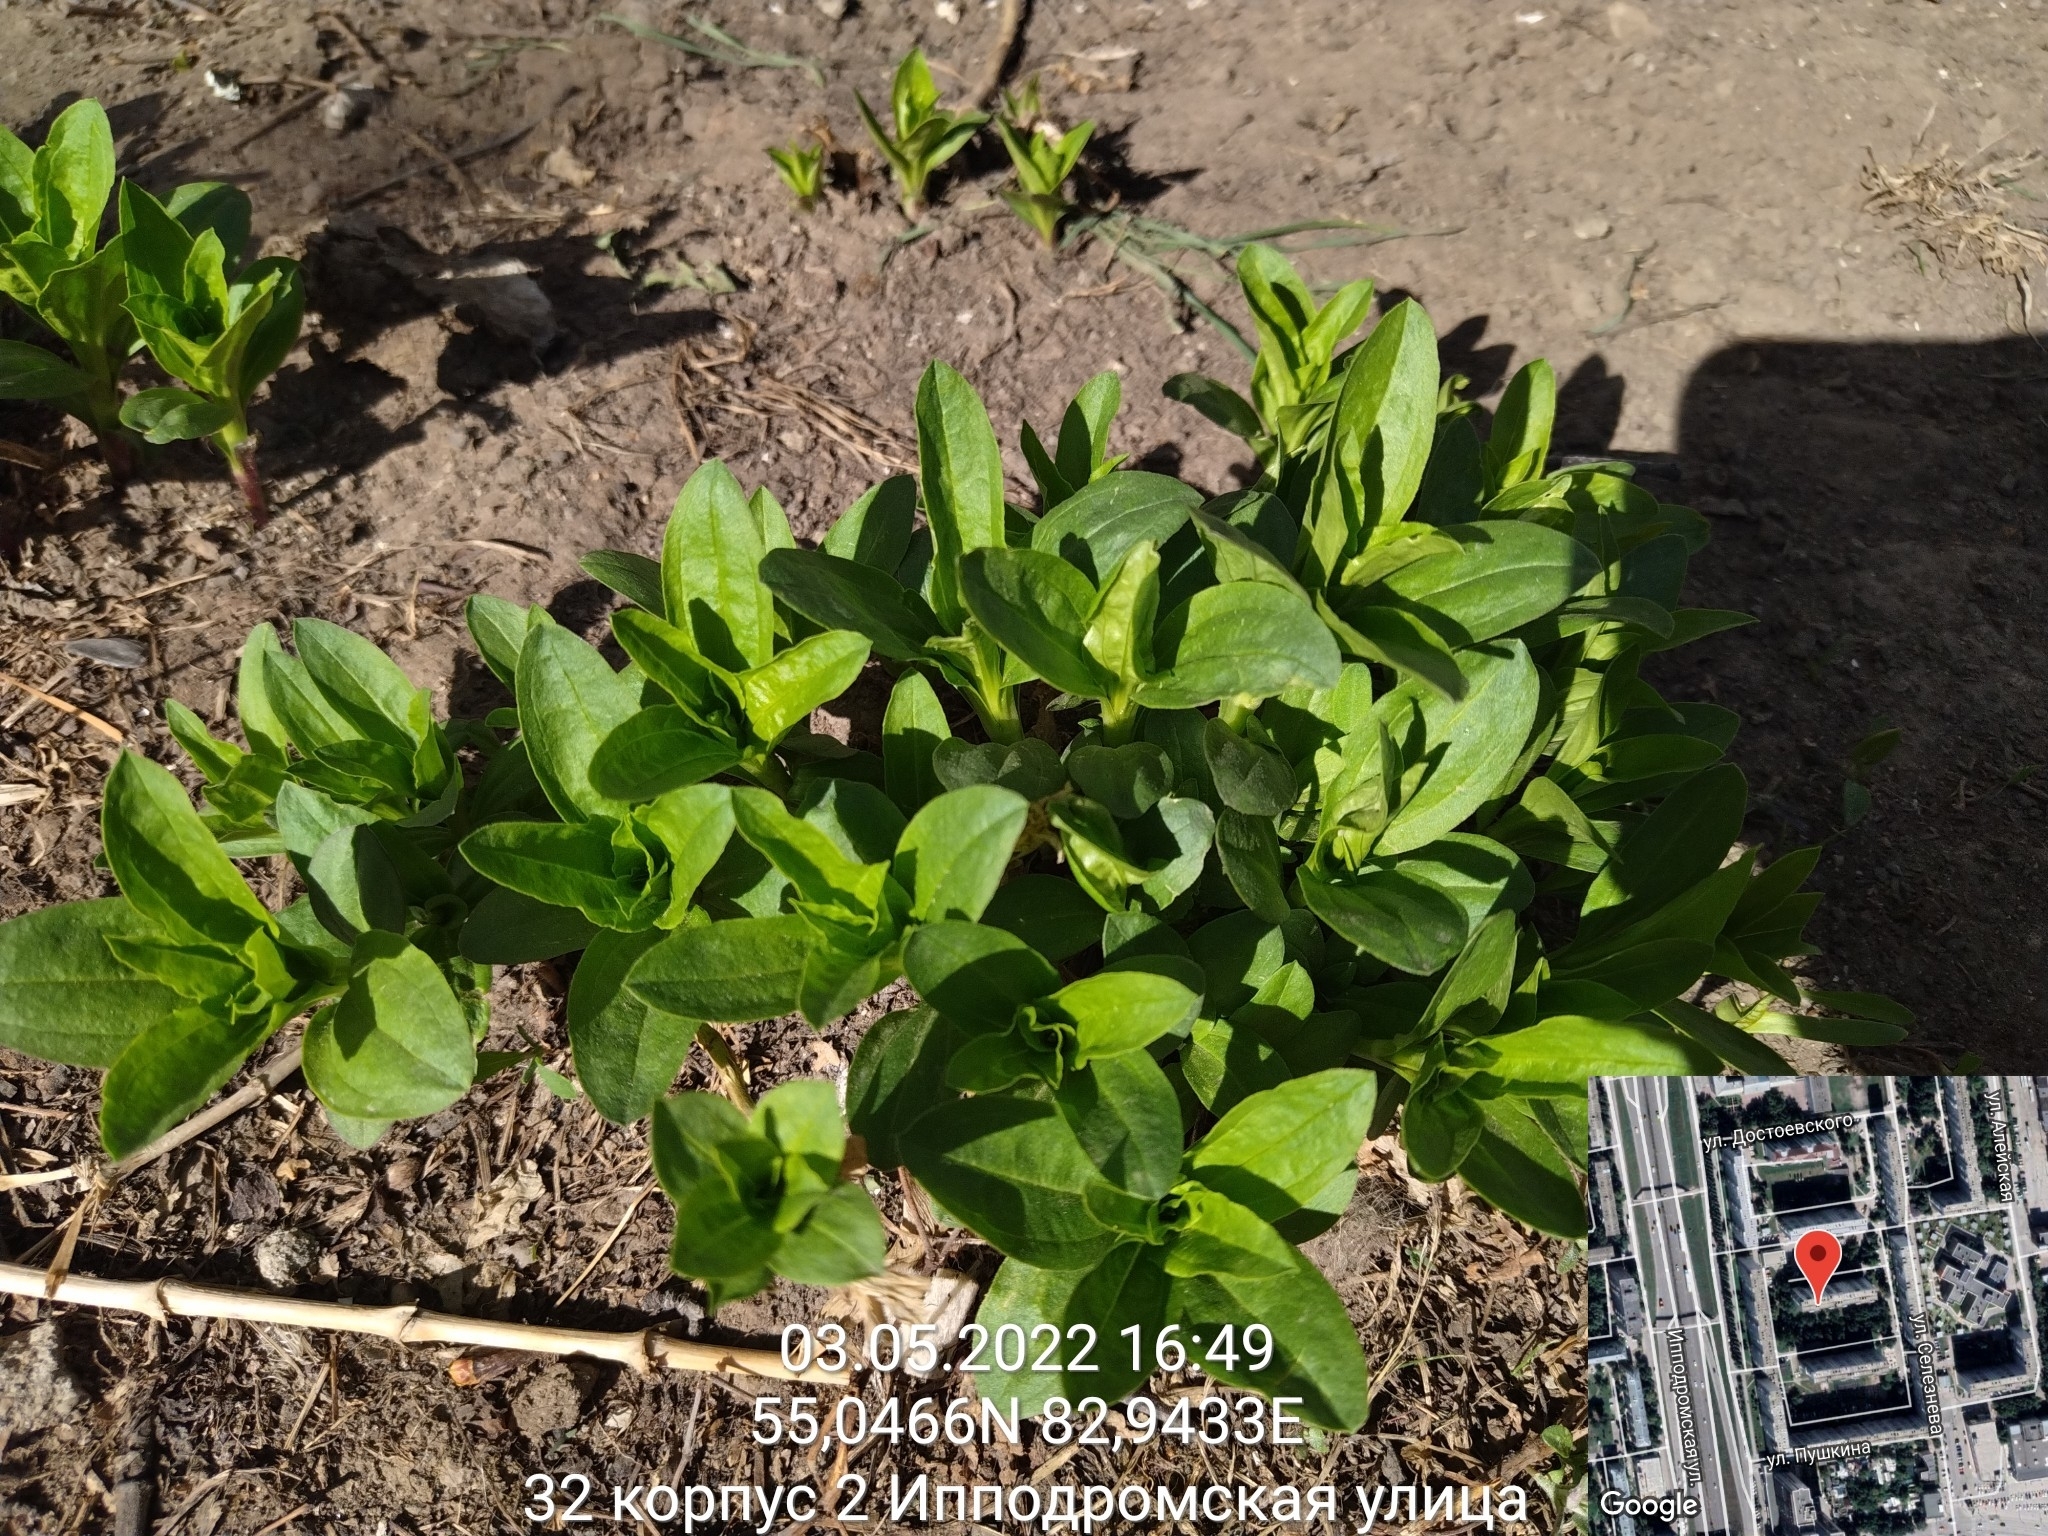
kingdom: Plantae
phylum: Tracheophyta
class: Magnoliopsida
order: Caryophyllales
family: Caryophyllaceae
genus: Saponaria
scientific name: Saponaria officinalis
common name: Soapwort
